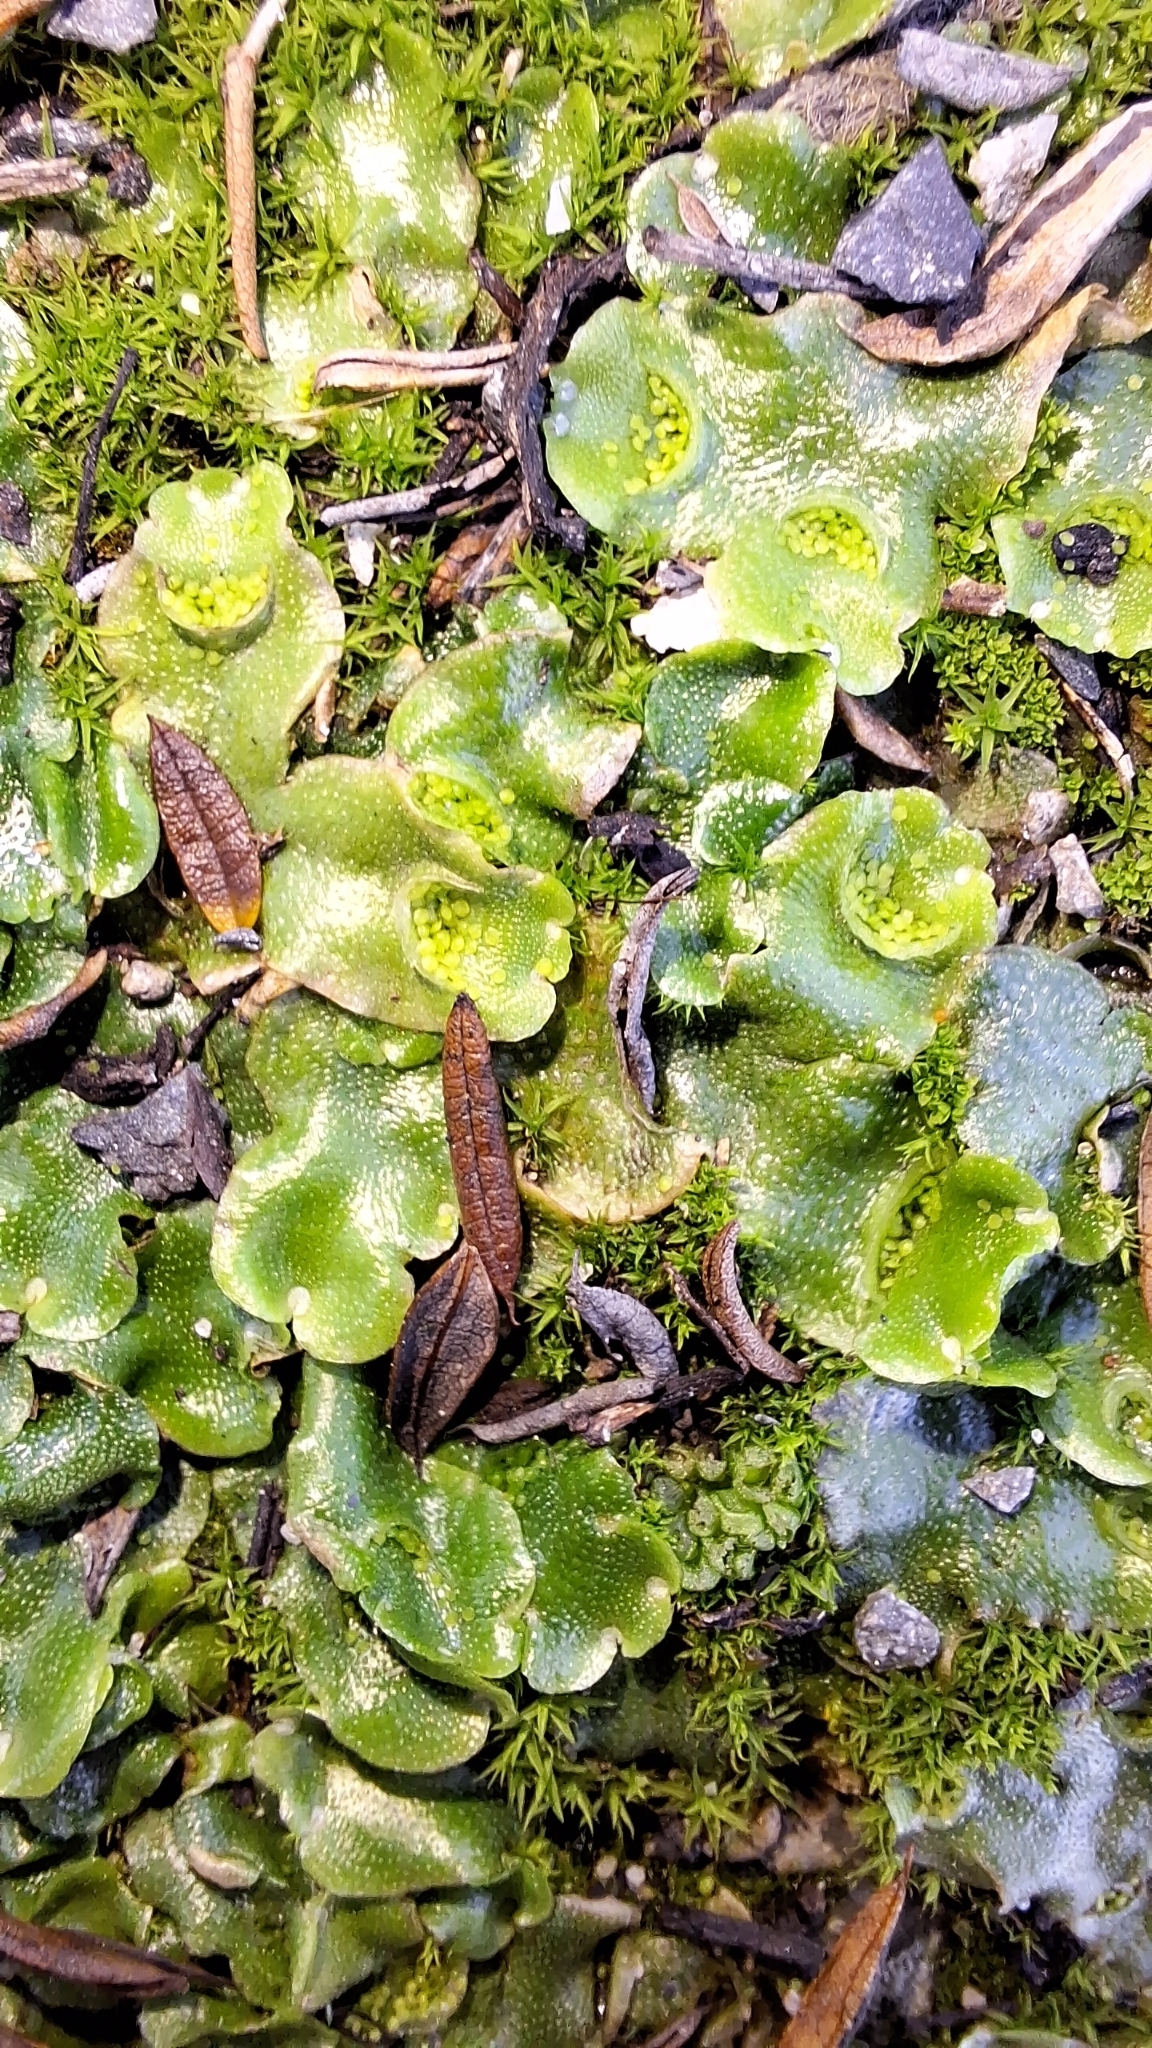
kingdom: Plantae
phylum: Marchantiophyta
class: Marchantiopsida
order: Lunulariales
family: Lunulariaceae
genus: Lunularia
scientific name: Lunularia cruciata
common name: Crescent-cup liverwort
